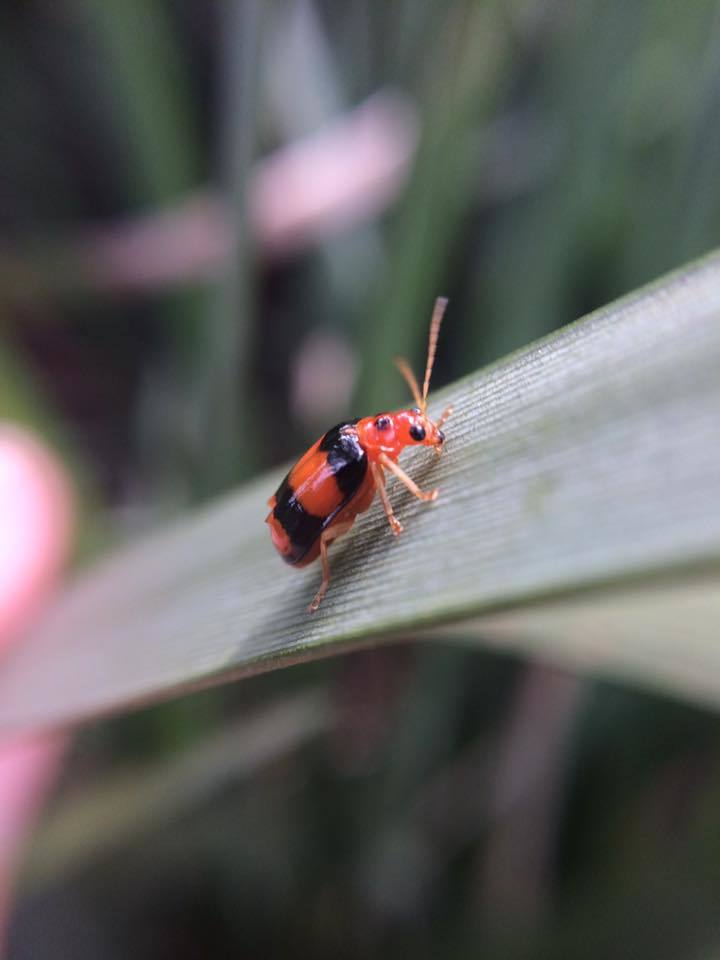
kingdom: Animalia
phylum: Arthropoda
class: Insecta
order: Coleoptera
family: Chrysomelidae
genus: Diacantha
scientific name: Diacantha
